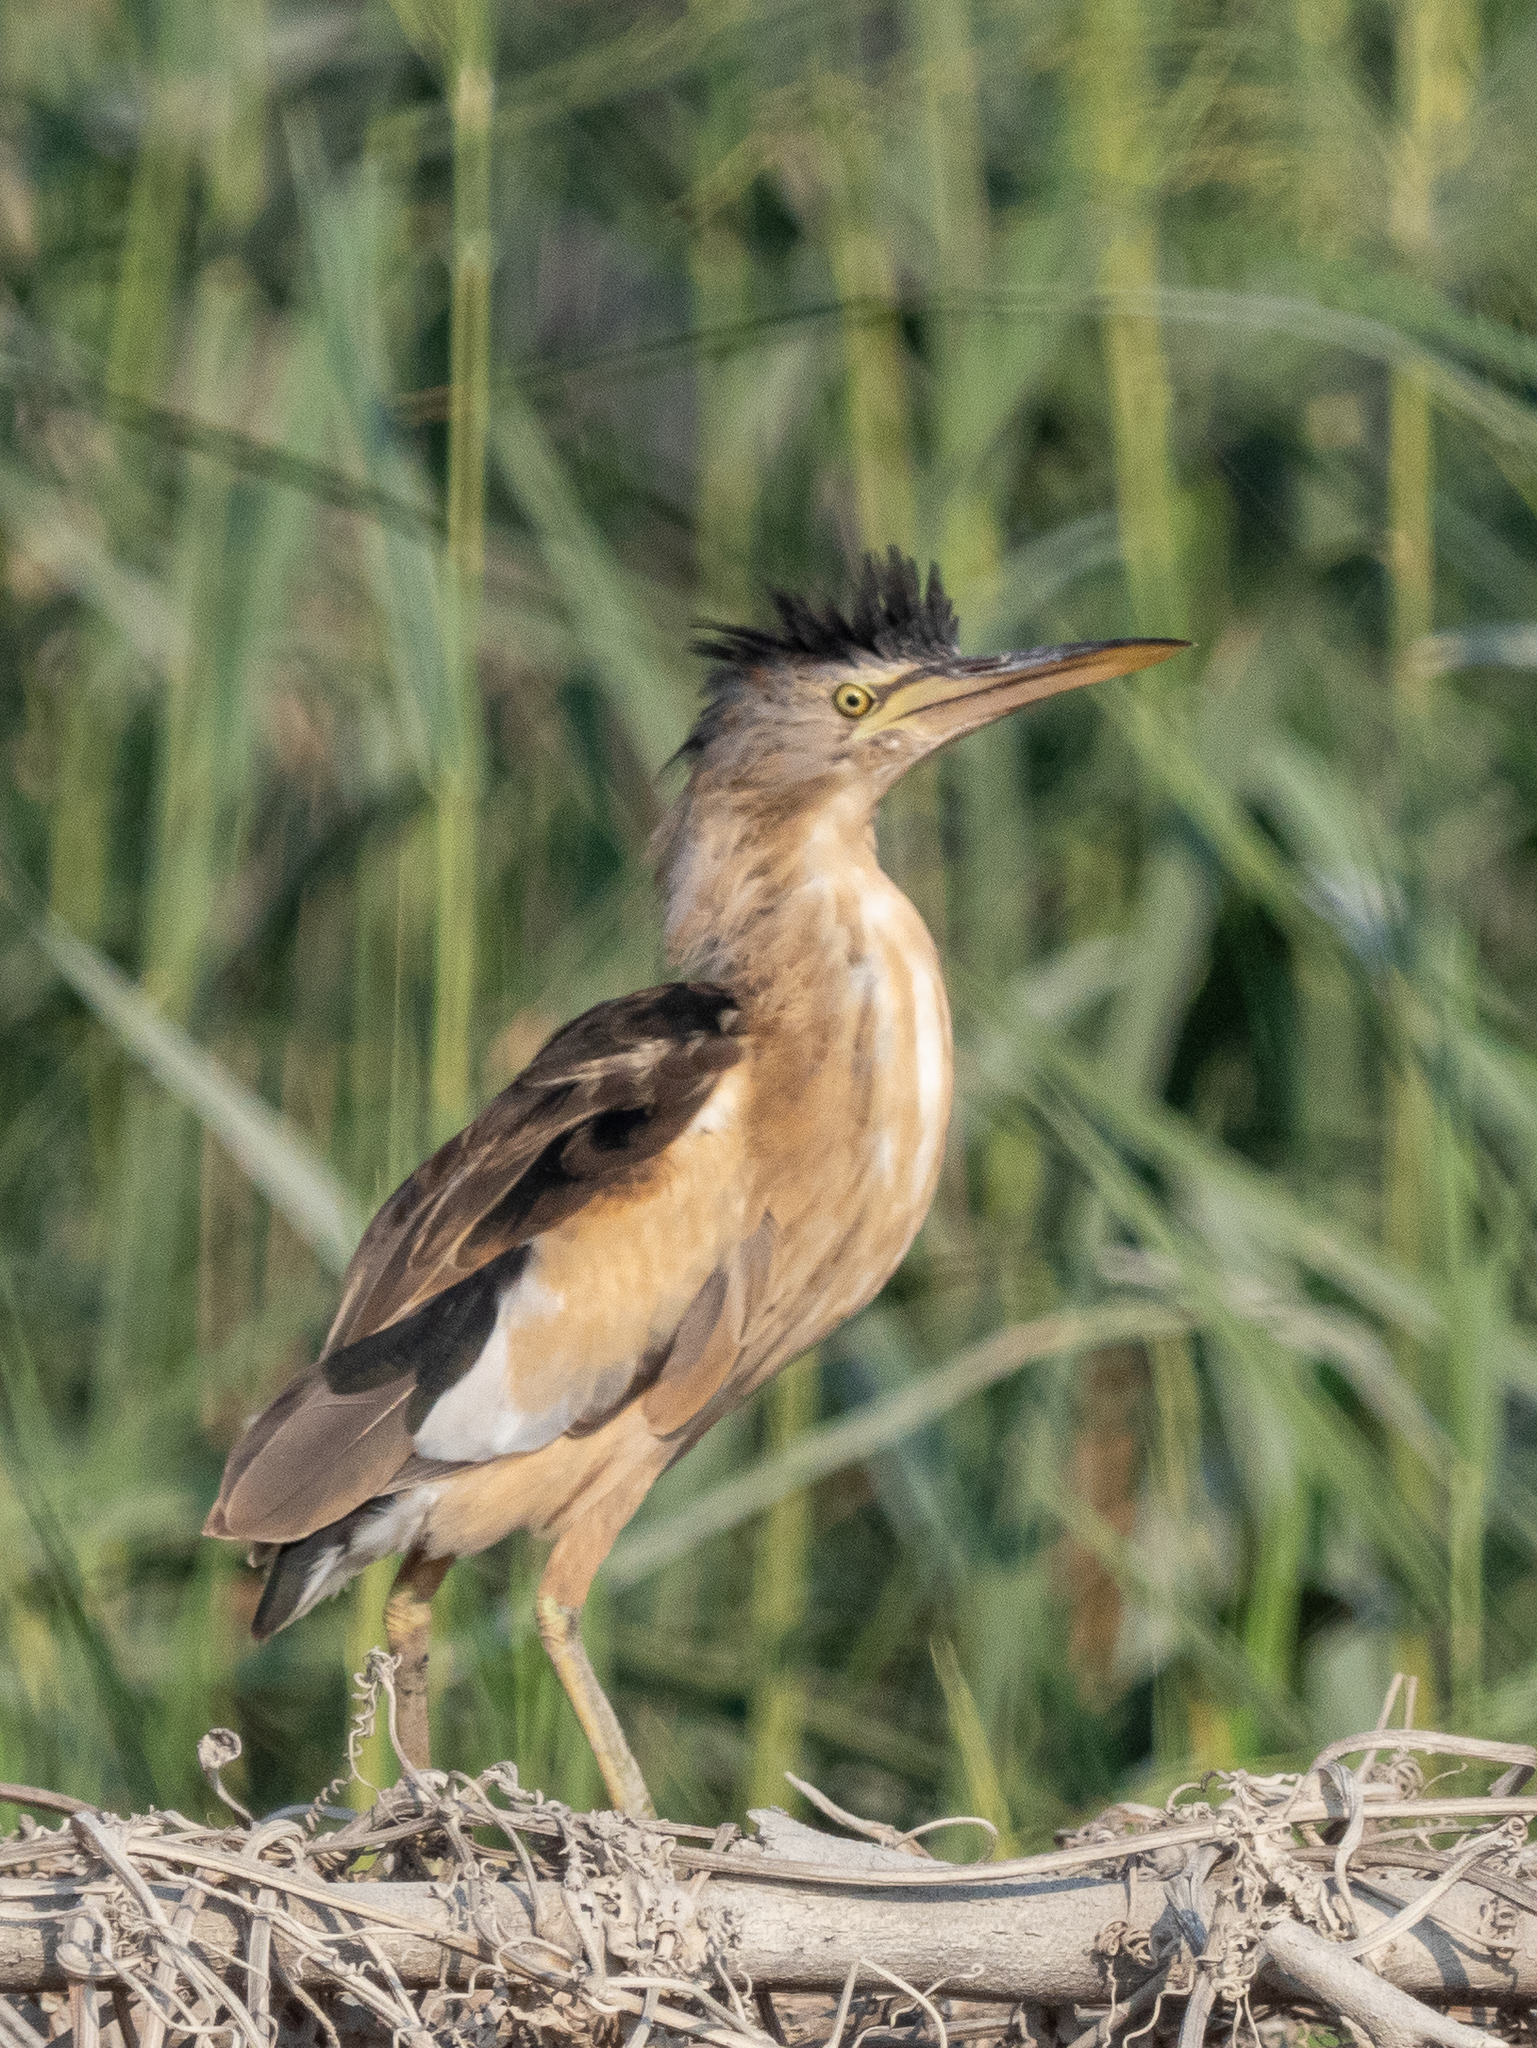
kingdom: Animalia
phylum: Chordata
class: Aves
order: Pelecaniformes
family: Ardeidae
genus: Ixobrychus
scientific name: Ixobrychus minutus
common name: Little bittern
